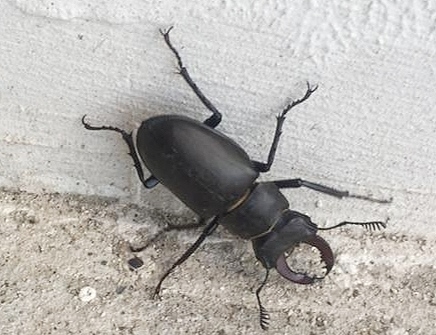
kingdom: Animalia
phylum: Arthropoda
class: Insecta
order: Coleoptera
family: Lucanidae
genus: Lucanus
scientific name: Lucanus cervus
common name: Stag beetle
